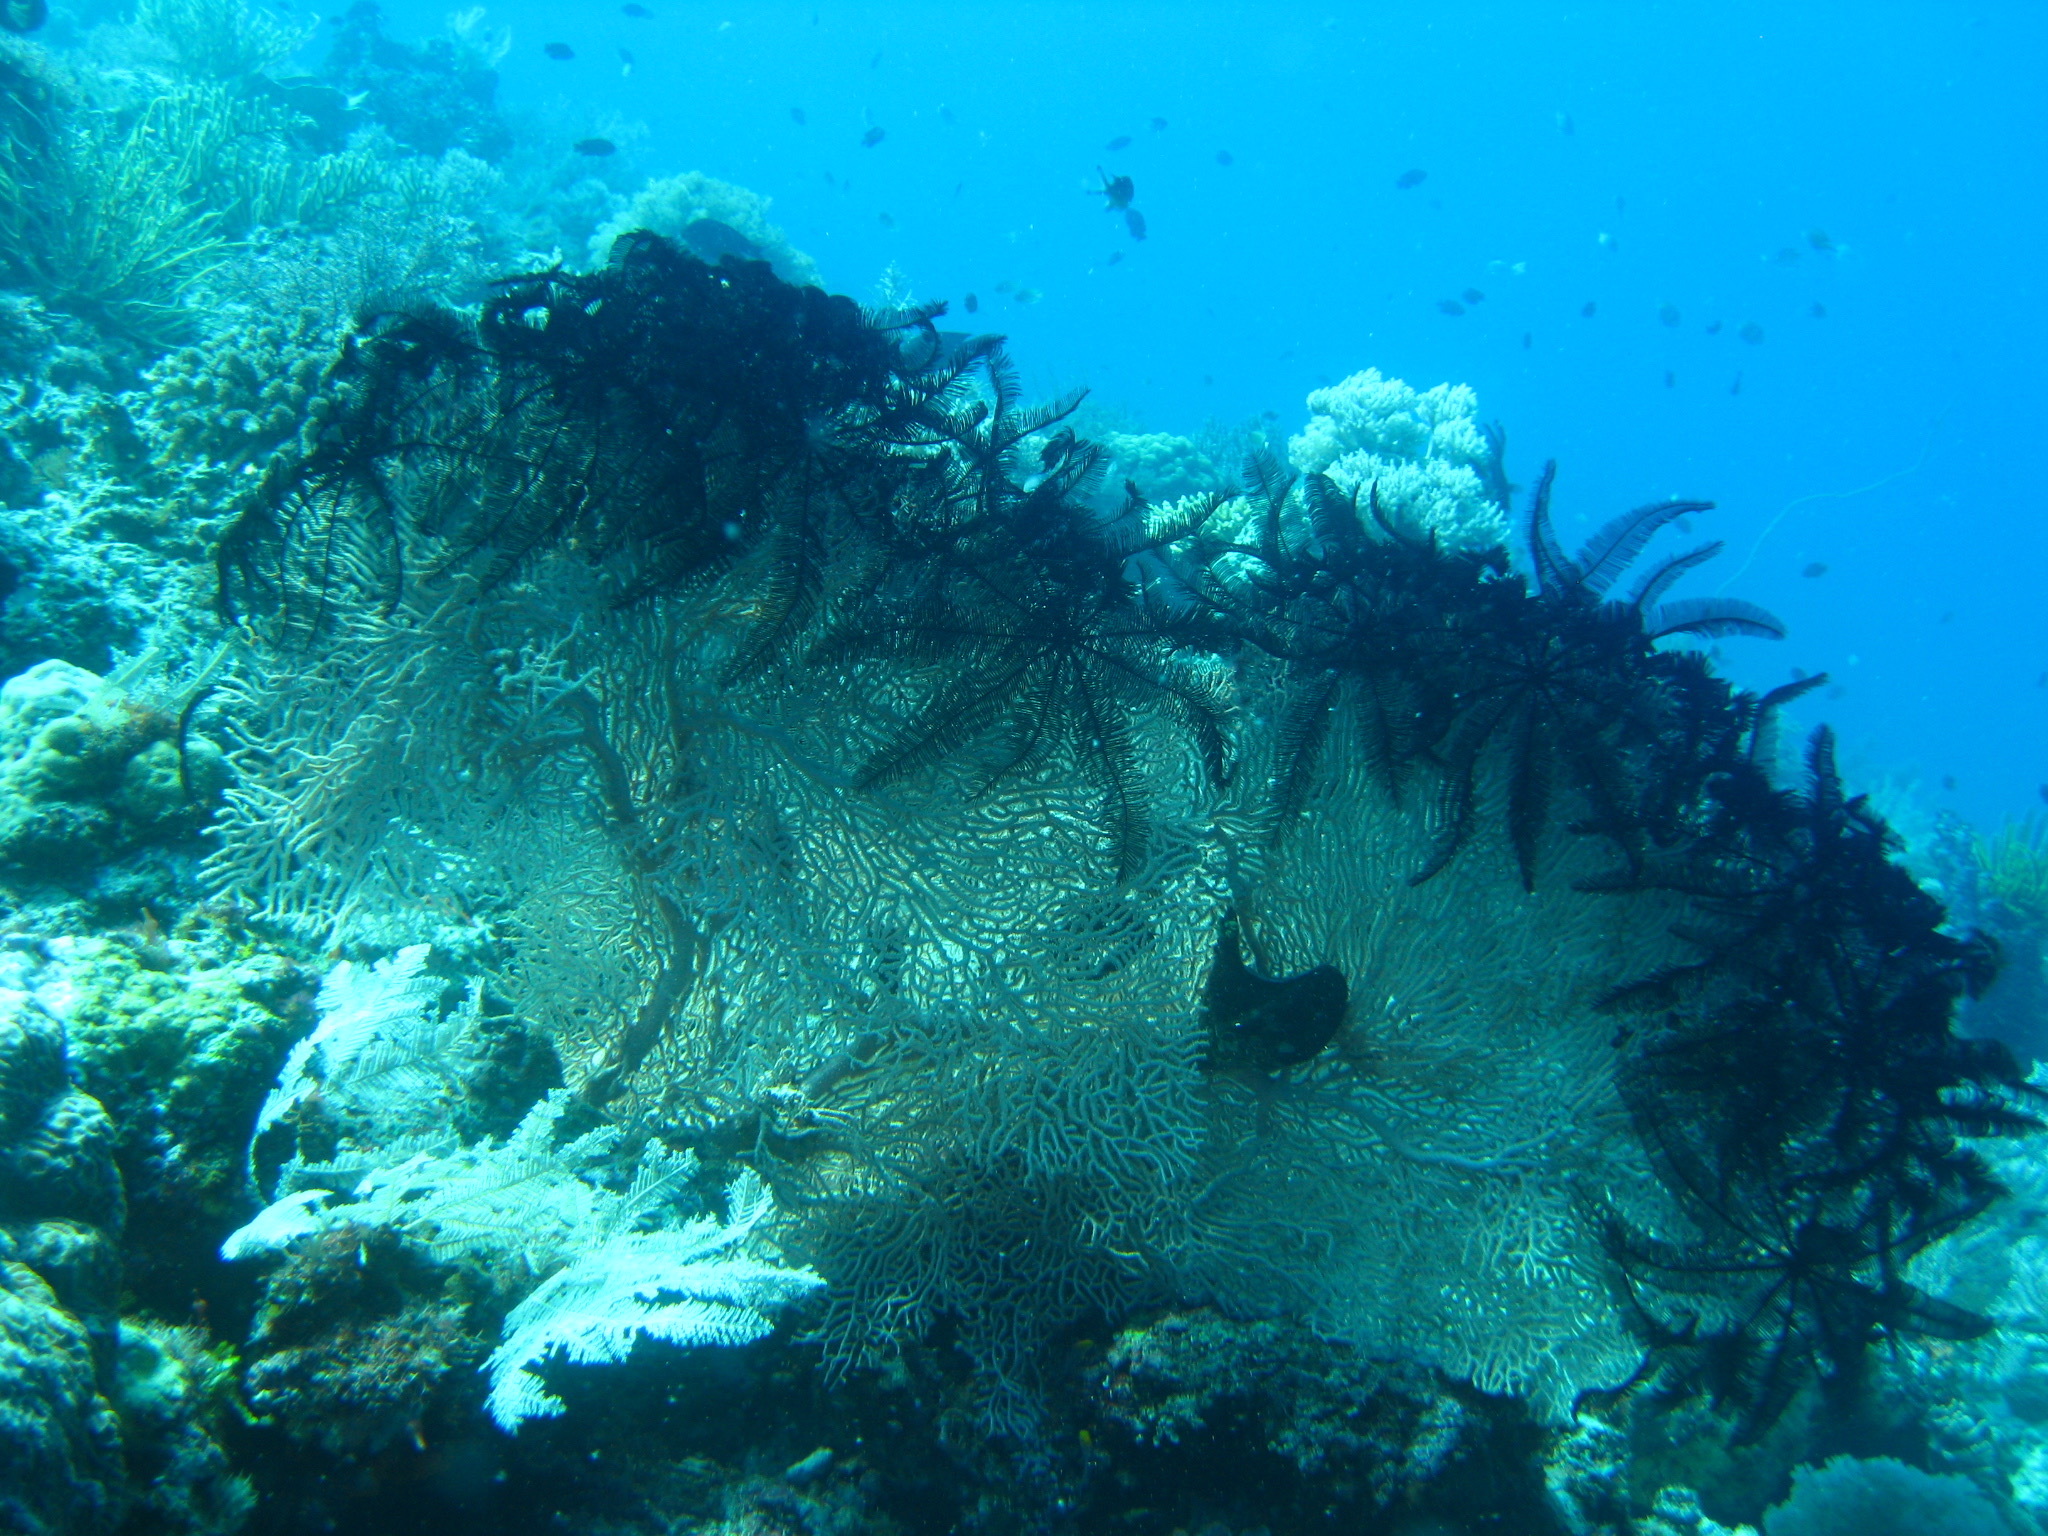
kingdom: Animalia
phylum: Cnidaria
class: Anthozoa
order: Malacalcyonacea
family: Subergorgiidae
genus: Annella
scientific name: Annella mollis
